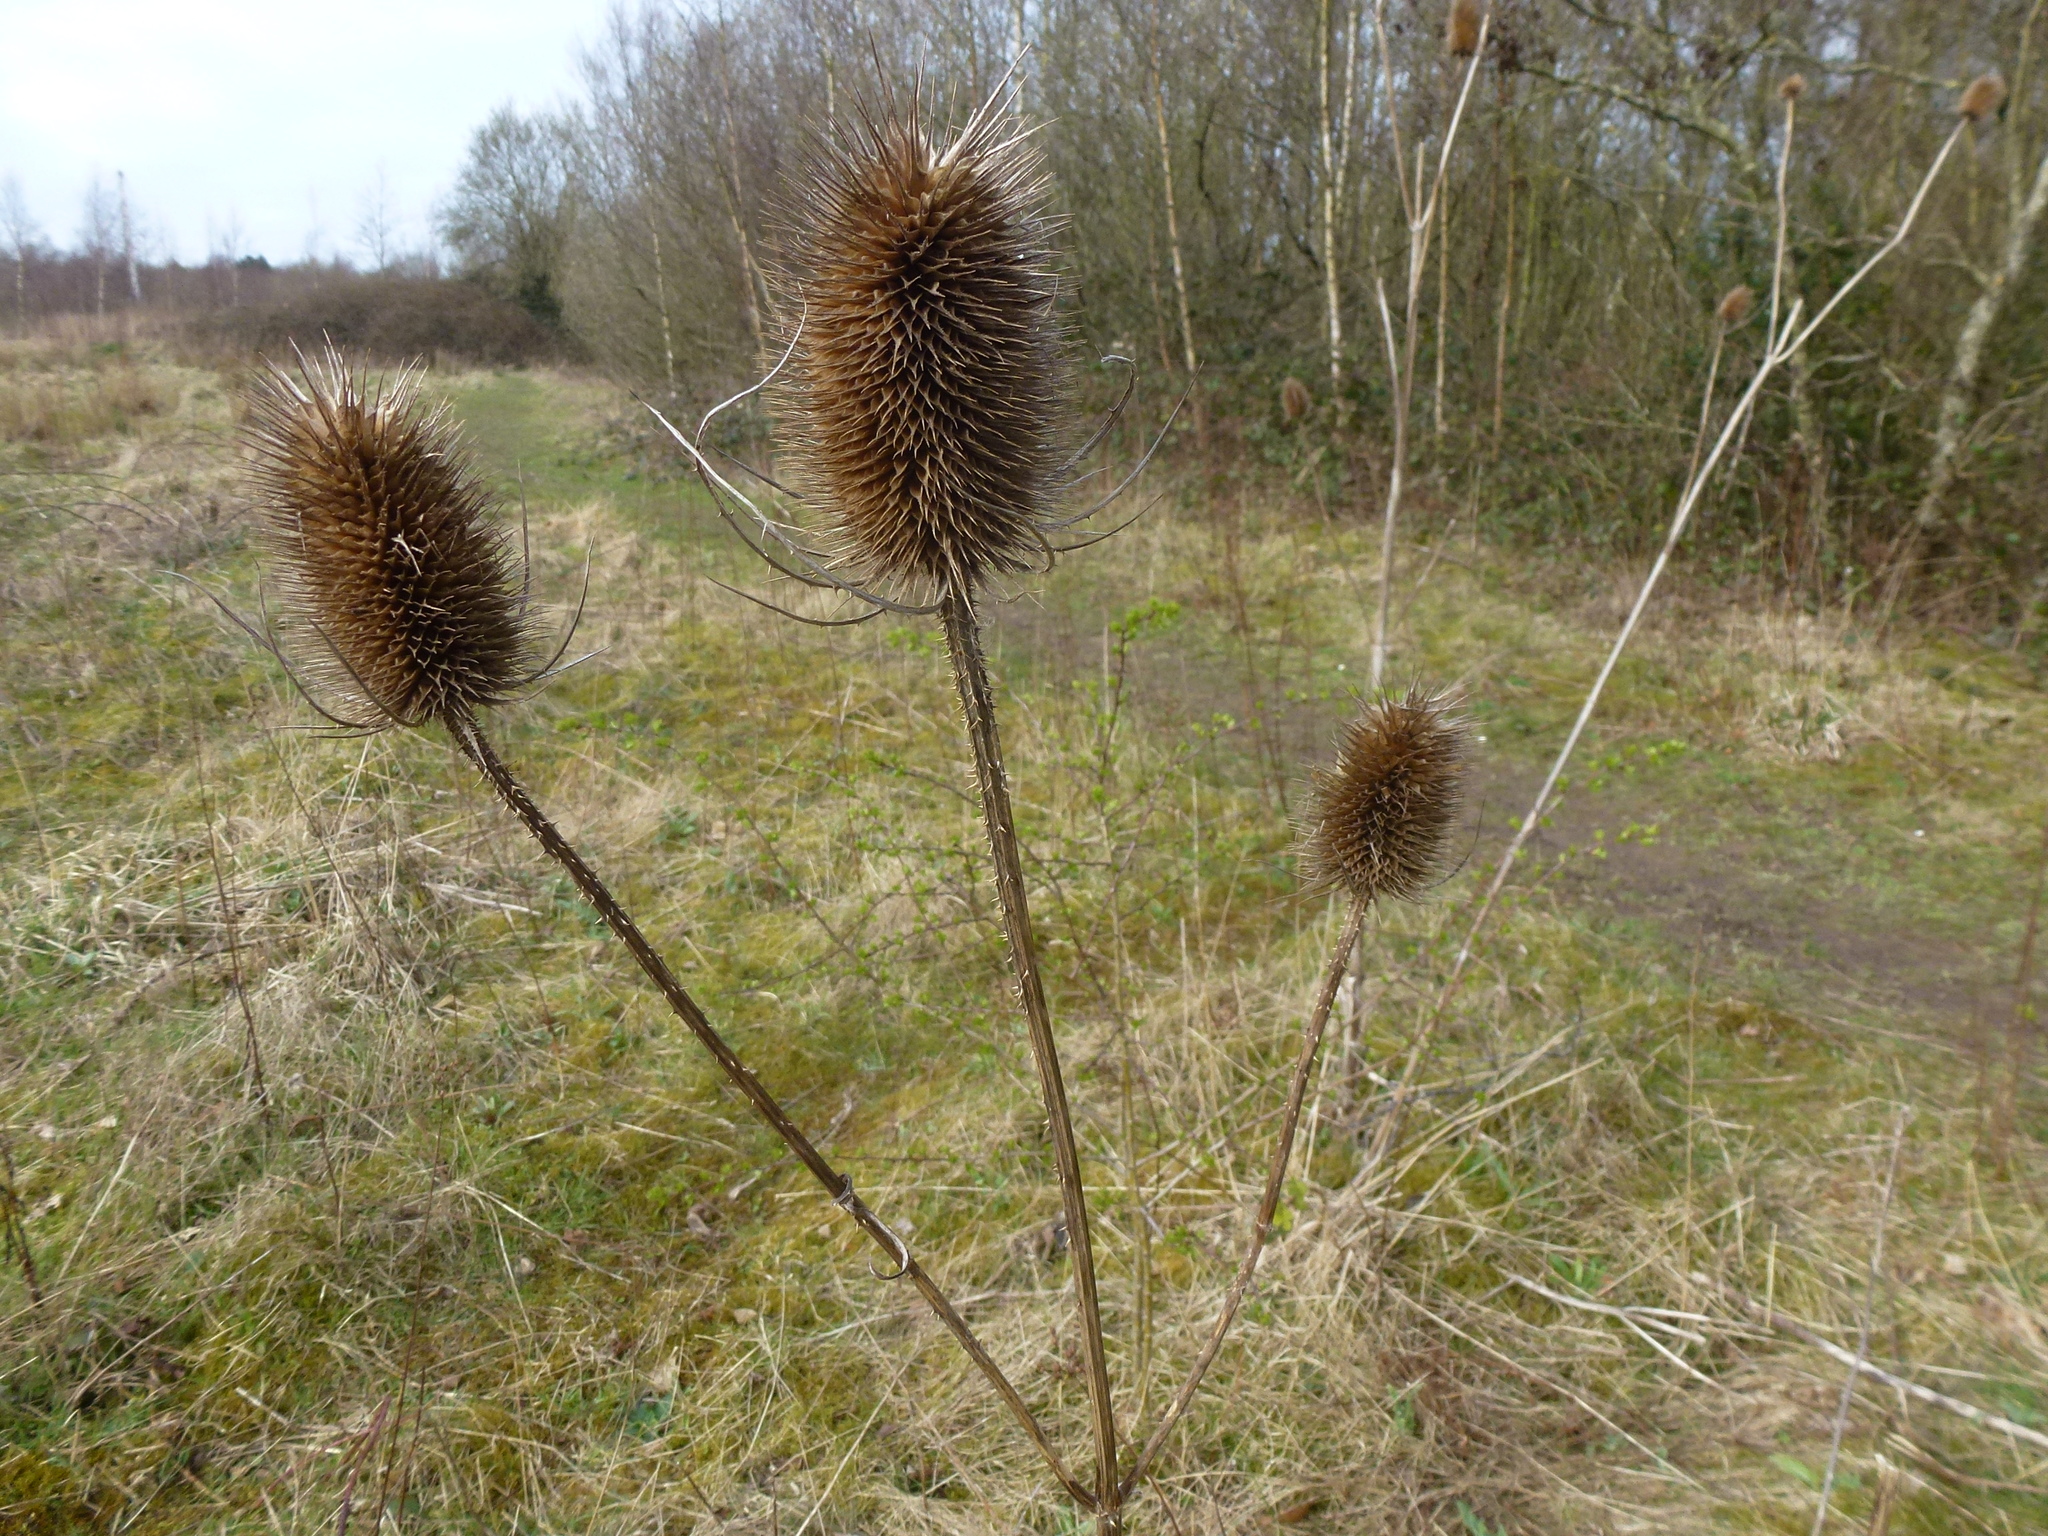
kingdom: Plantae
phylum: Tracheophyta
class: Magnoliopsida
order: Dipsacales
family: Caprifoliaceae
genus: Dipsacus
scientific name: Dipsacus fullonum
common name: Teasel
